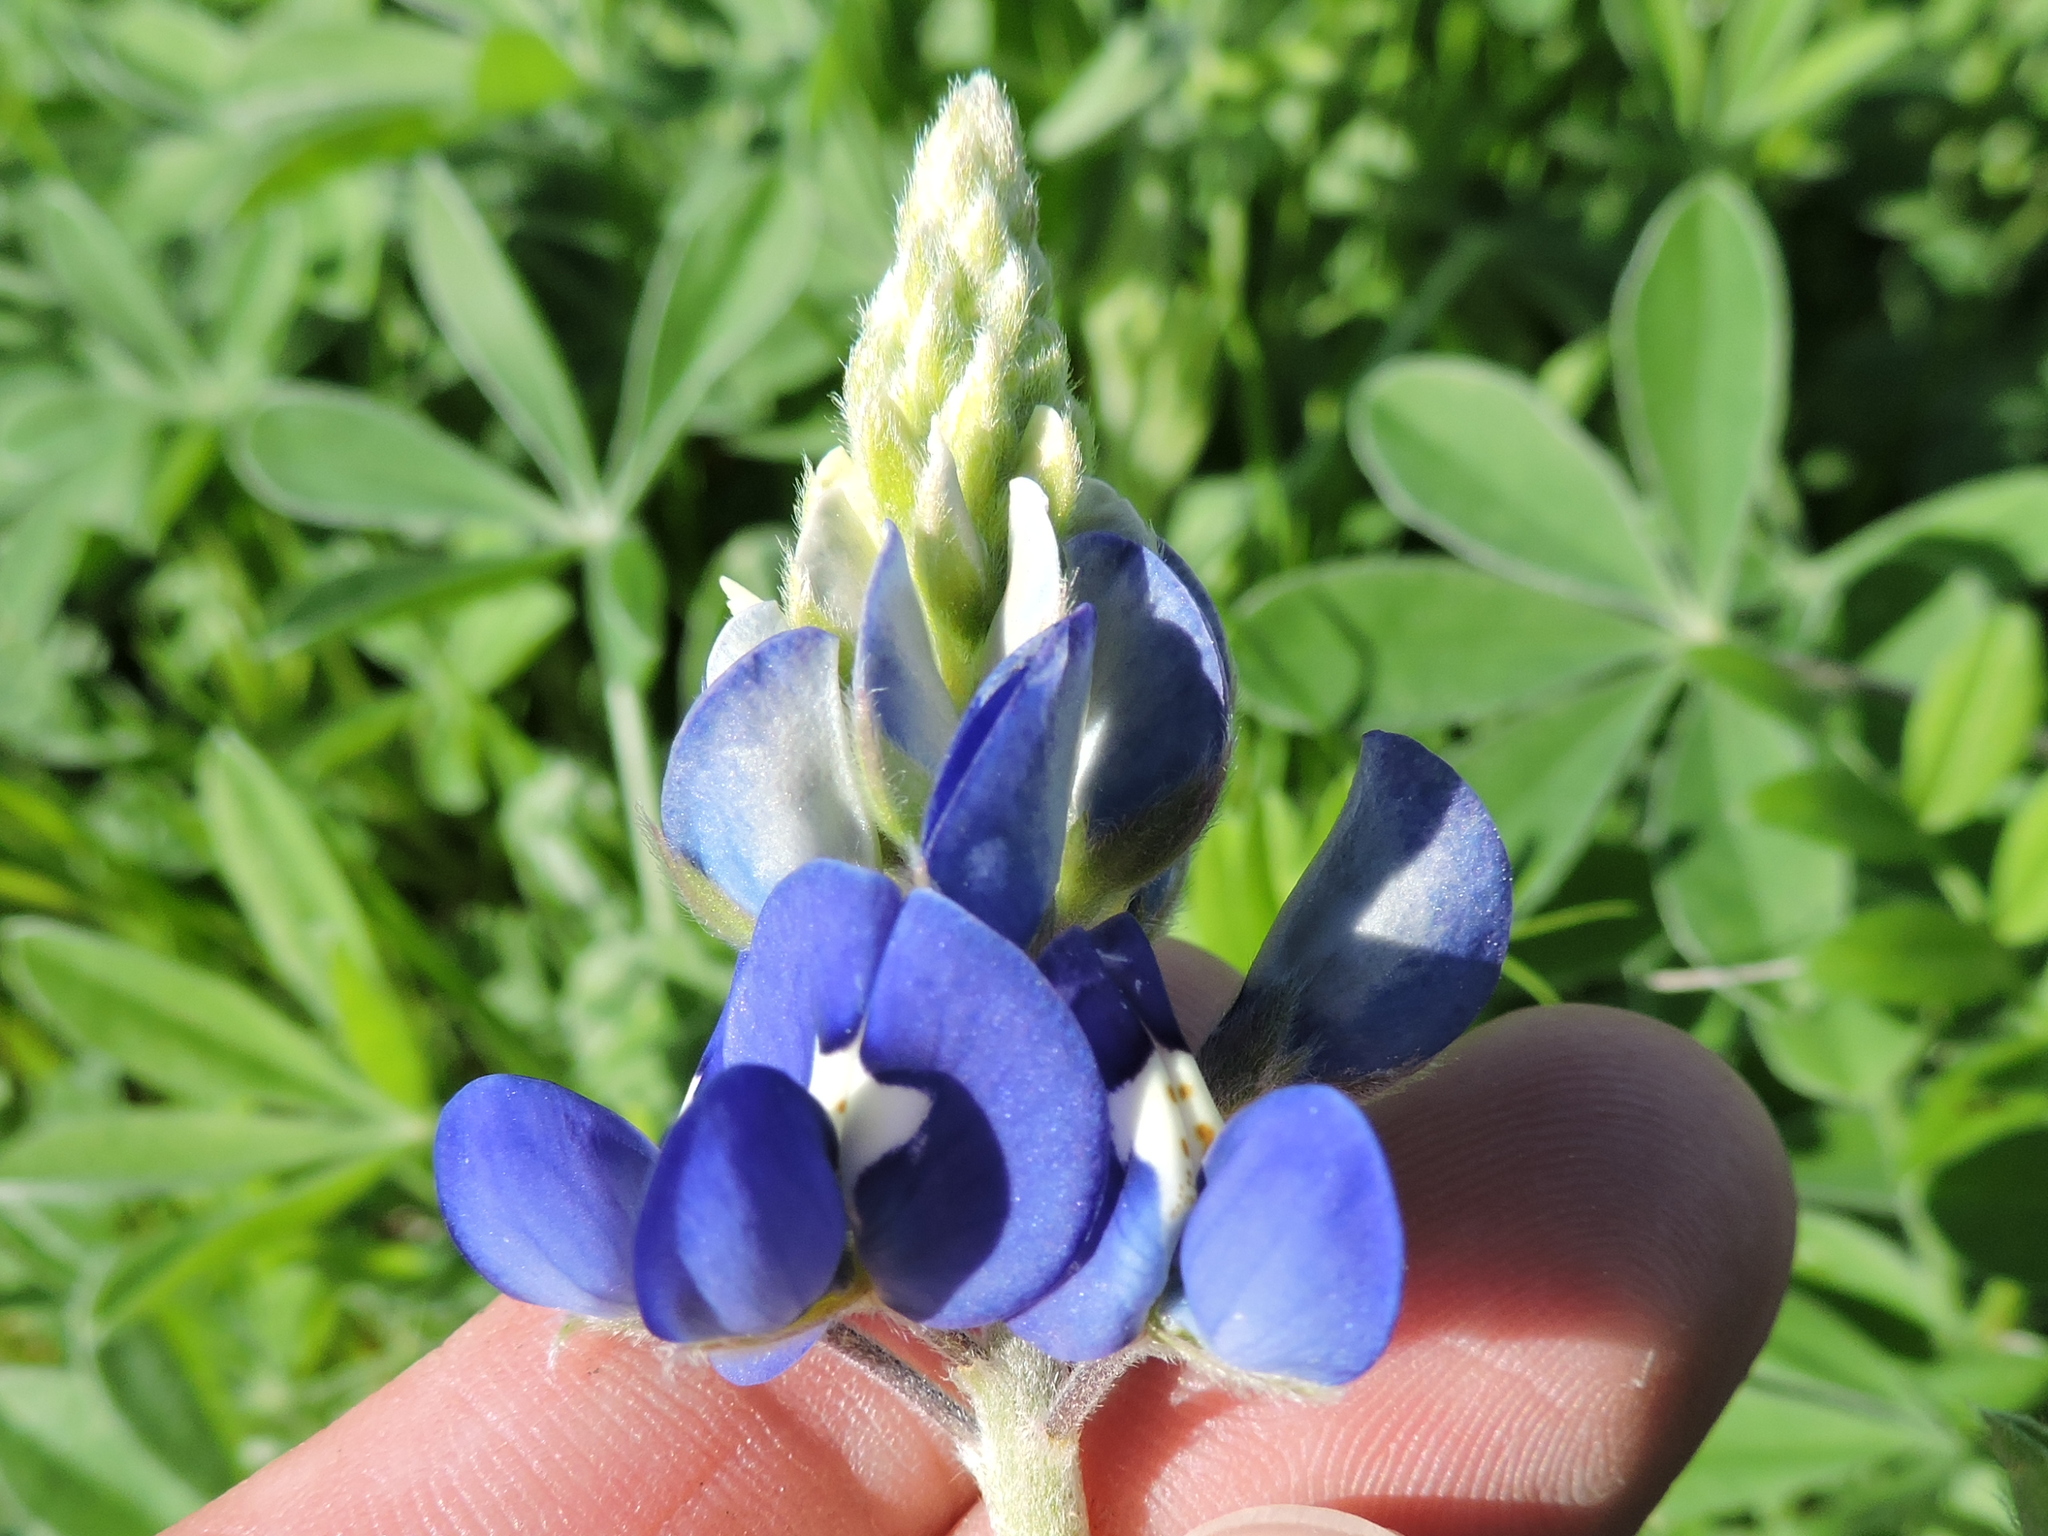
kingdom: Plantae
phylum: Tracheophyta
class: Magnoliopsida
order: Fabales
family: Fabaceae
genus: Lupinus
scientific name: Lupinus texensis
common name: Texas bluebonnet
